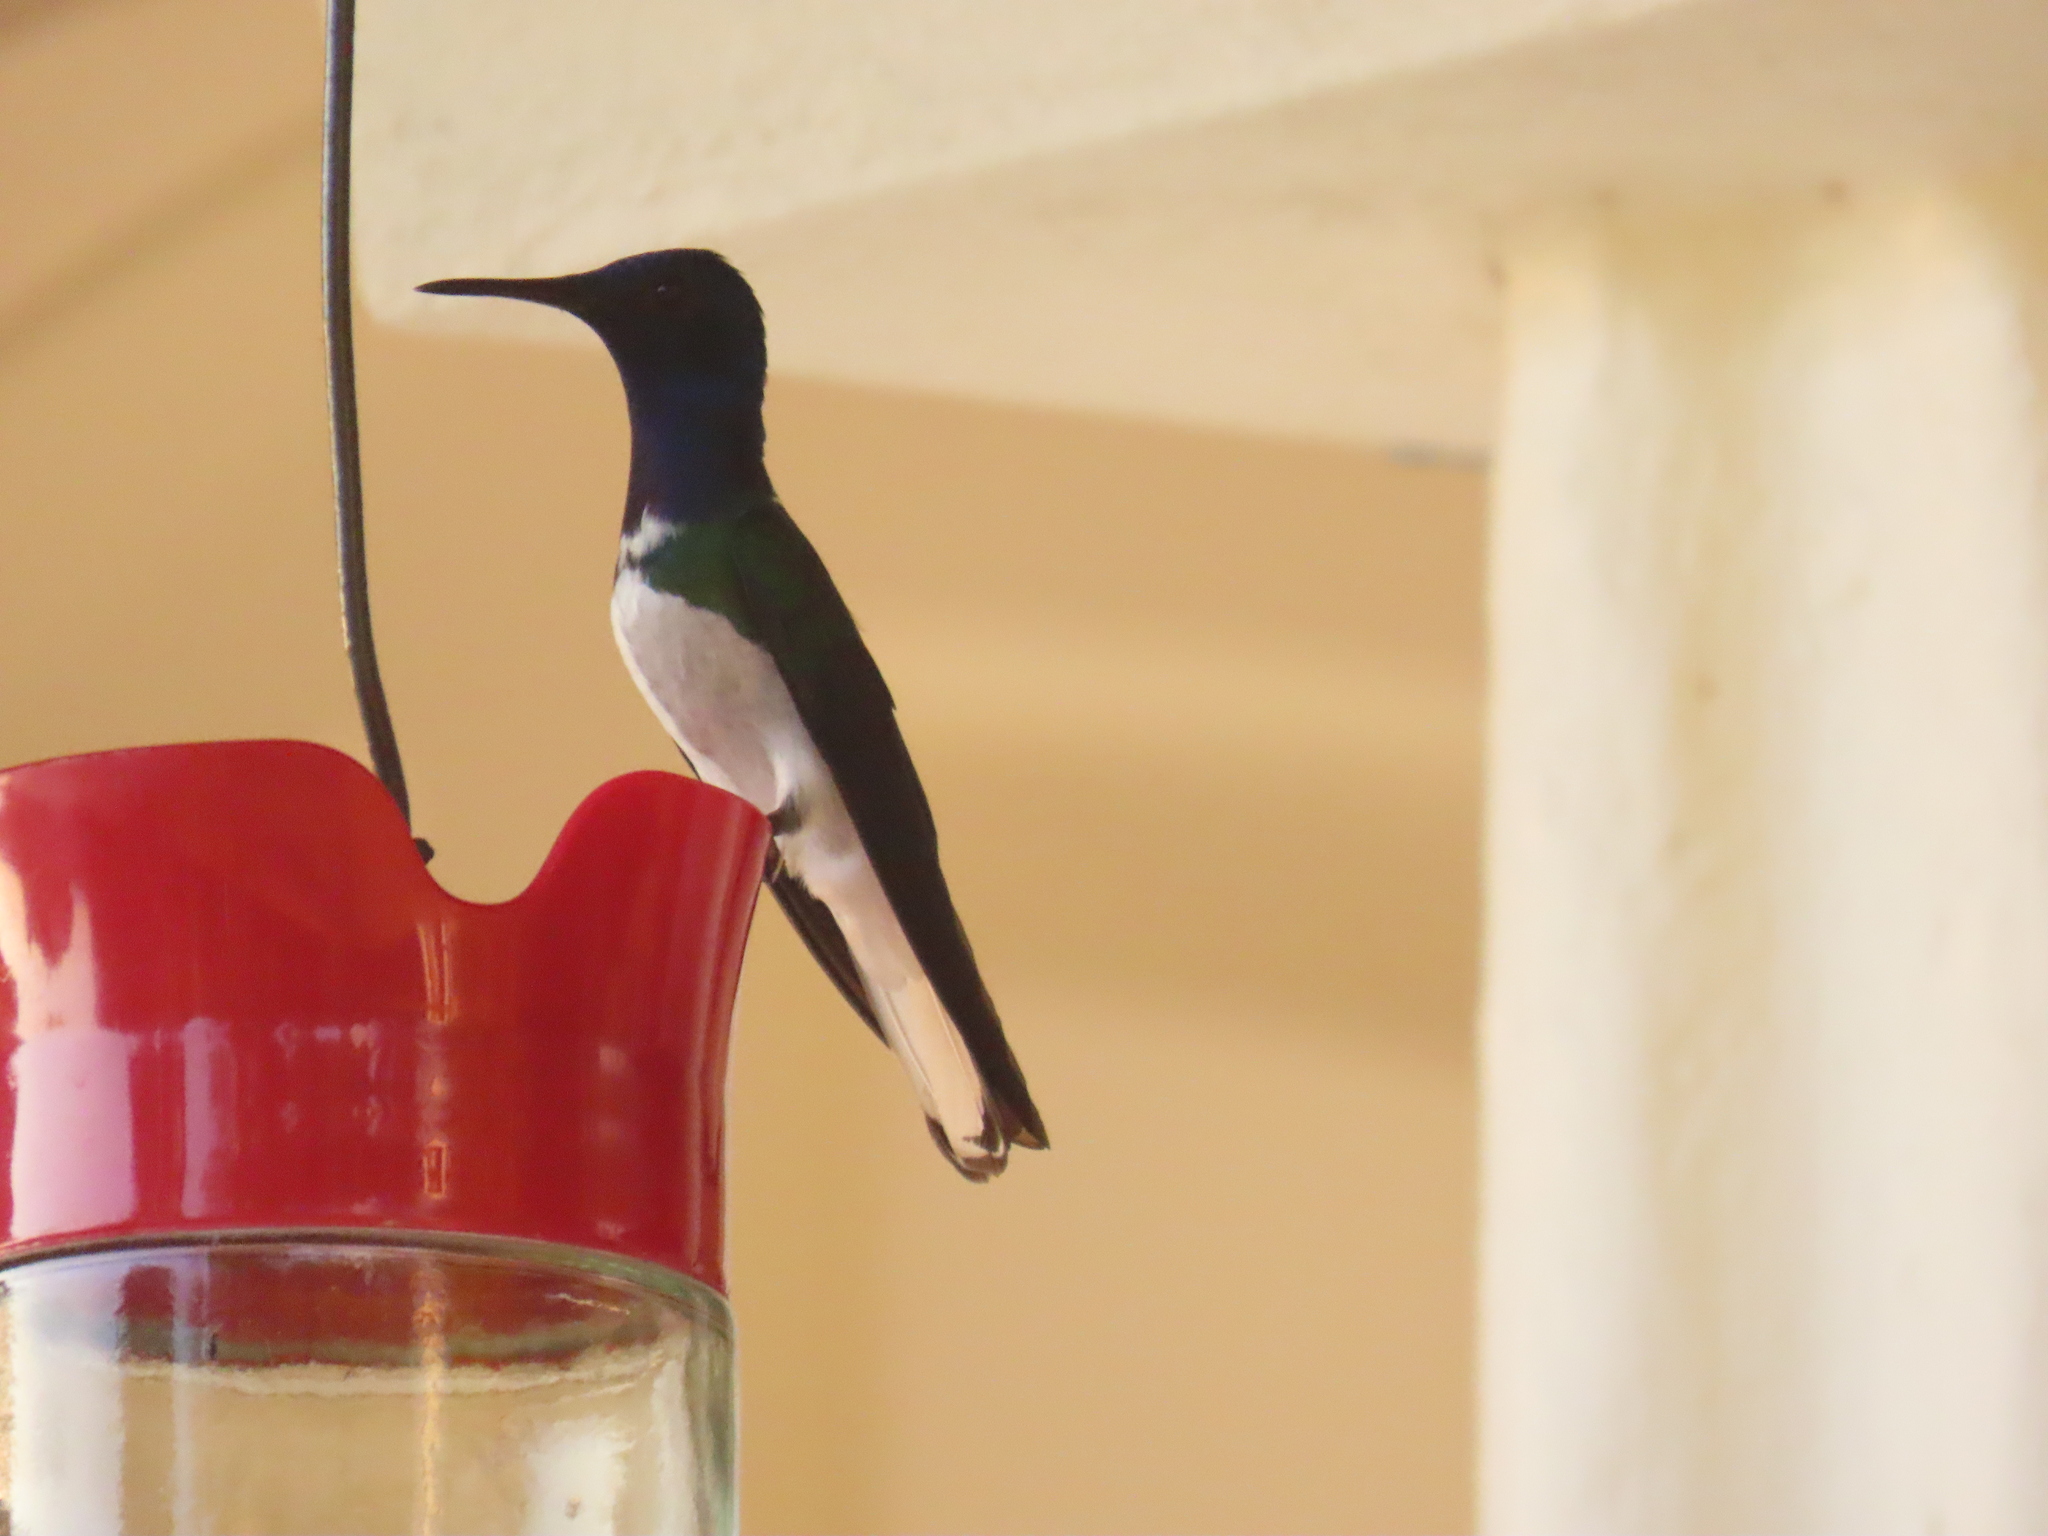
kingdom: Animalia
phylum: Chordata
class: Aves
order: Apodiformes
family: Trochilidae
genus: Florisuga
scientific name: Florisuga mellivora
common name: White-necked jacobin
